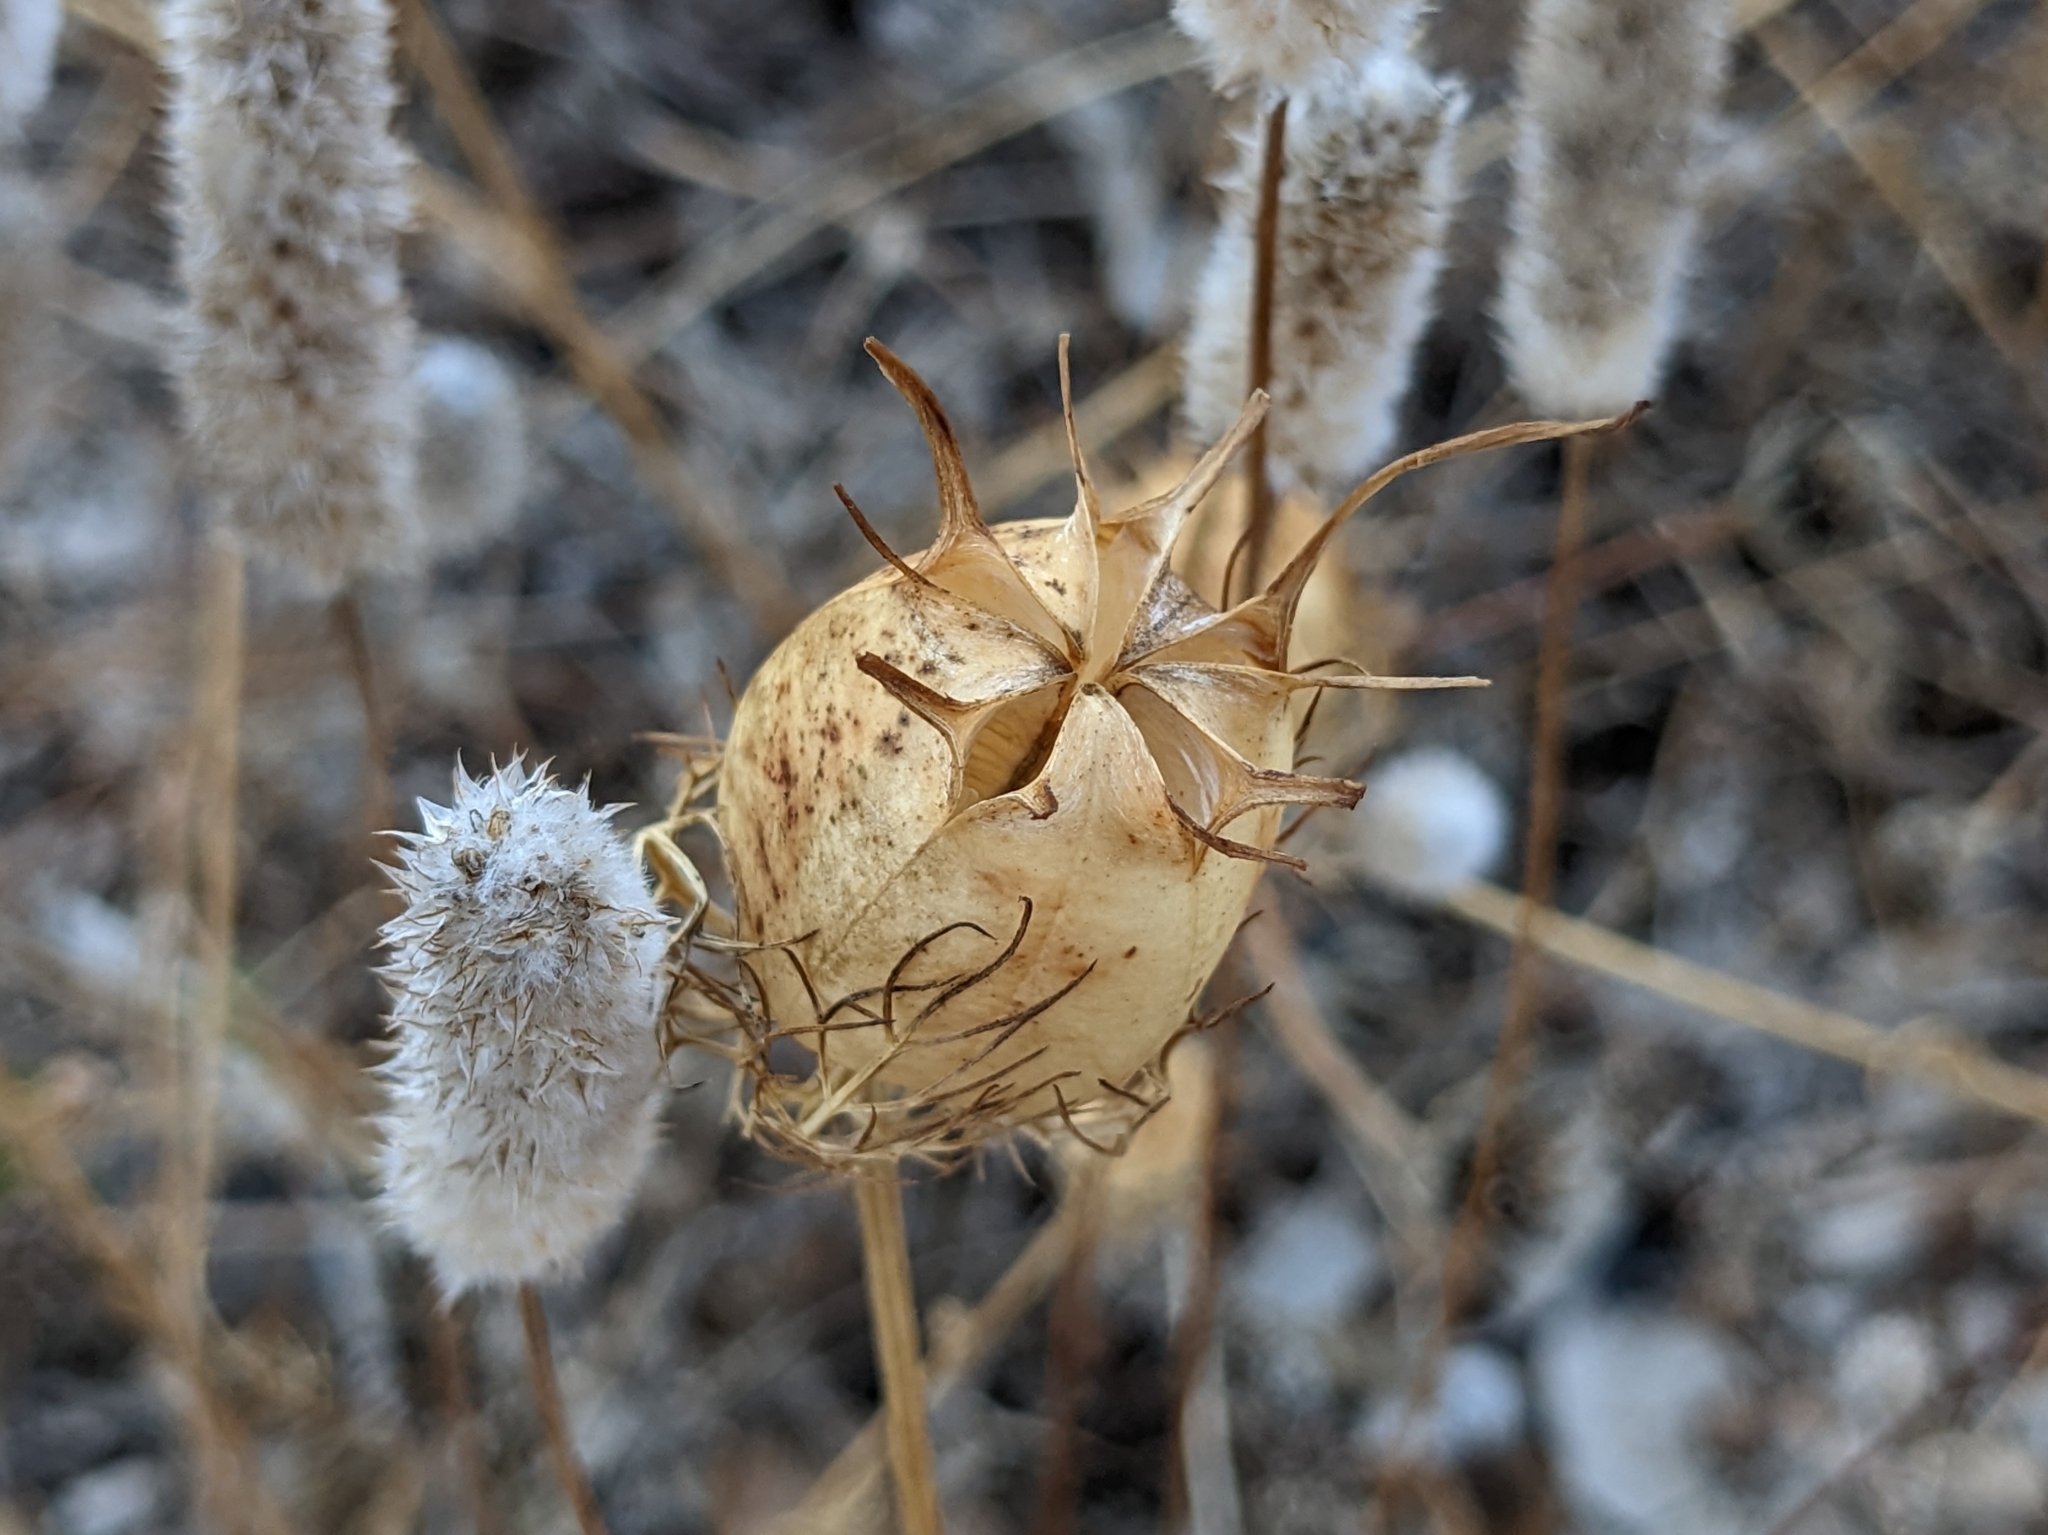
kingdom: Plantae
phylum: Tracheophyta
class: Magnoliopsida
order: Ranunculales
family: Ranunculaceae
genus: Nigella
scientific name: Nigella damascena
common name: Love-in-a-mist
